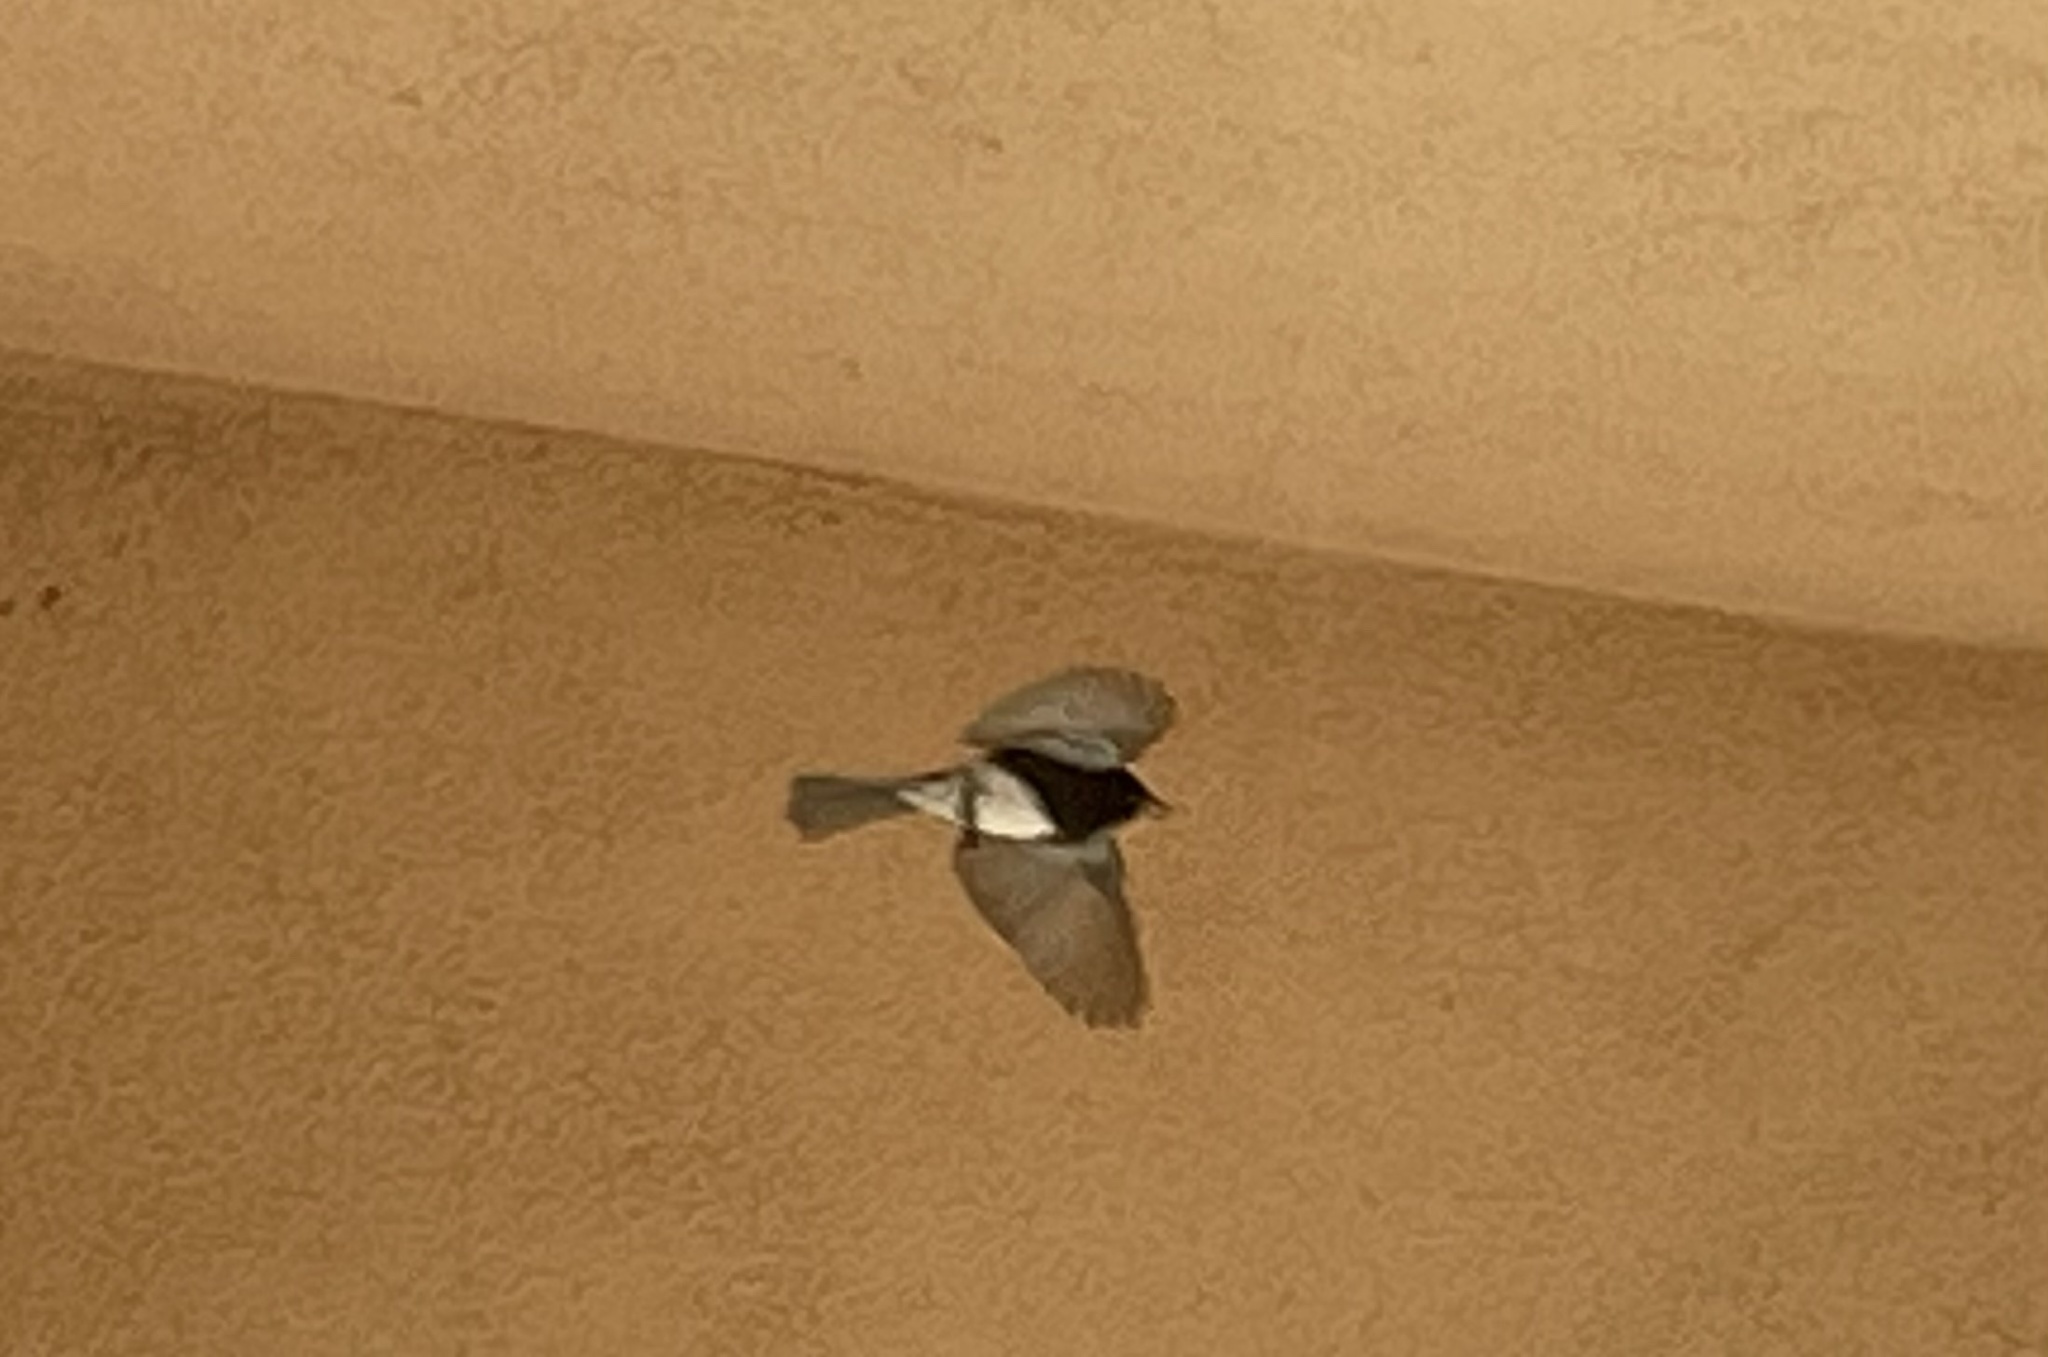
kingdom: Animalia
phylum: Chordata
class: Aves
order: Passeriformes
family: Tyrannidae
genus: Sayornis
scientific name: Sayornis nigricans
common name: Black phoebe
